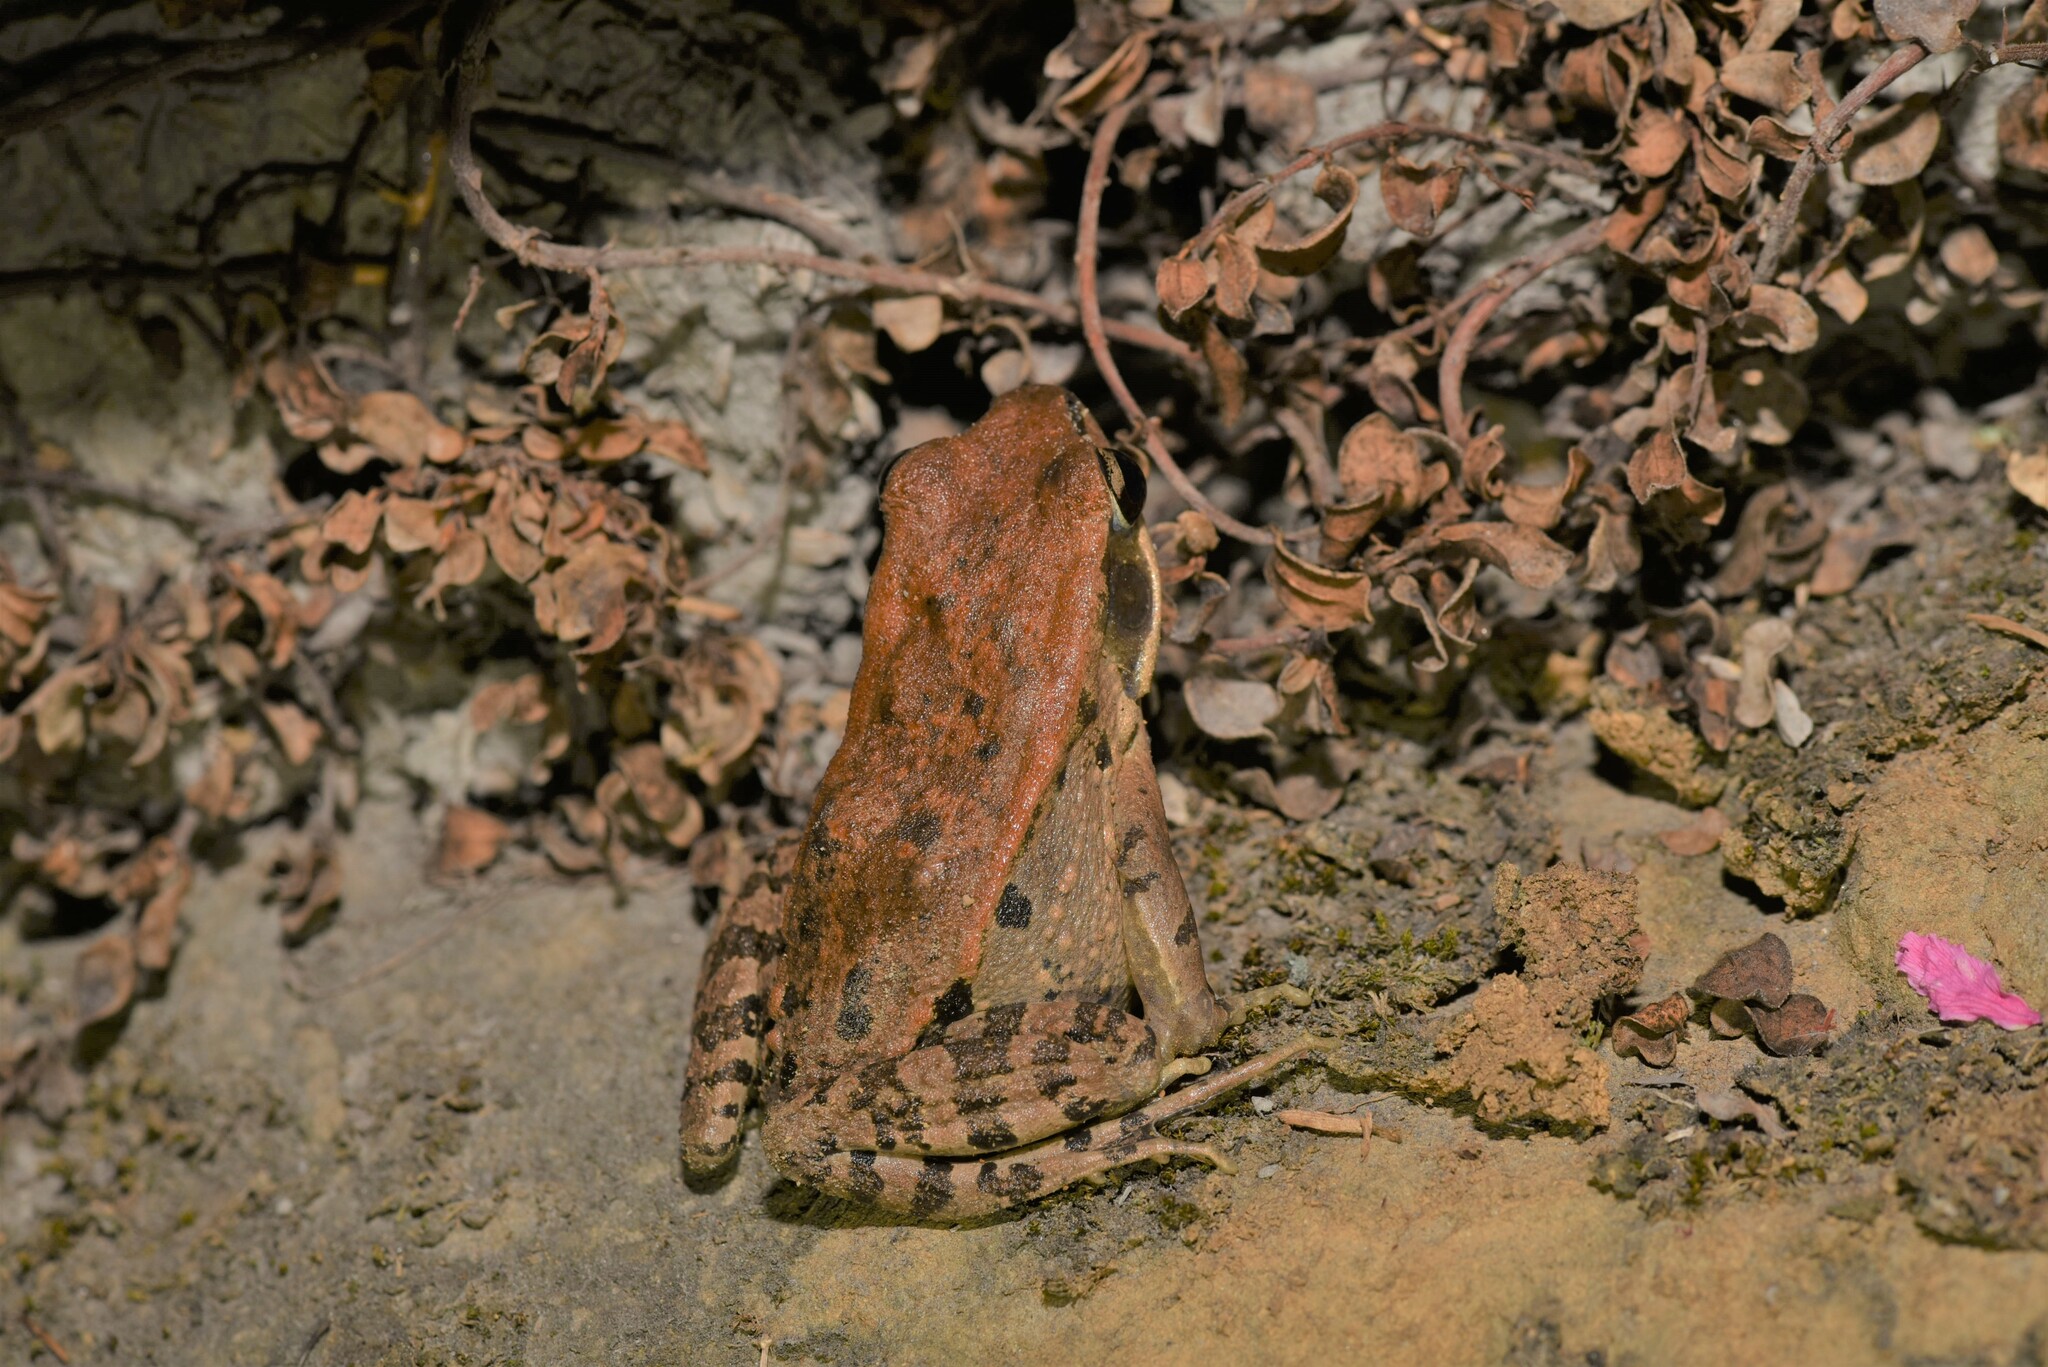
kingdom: Animalia
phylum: Chordata
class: Amphibia
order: Anura
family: Ranidae
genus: Hylarana
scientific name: Hylarana latouchii
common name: Broad-folded frog
